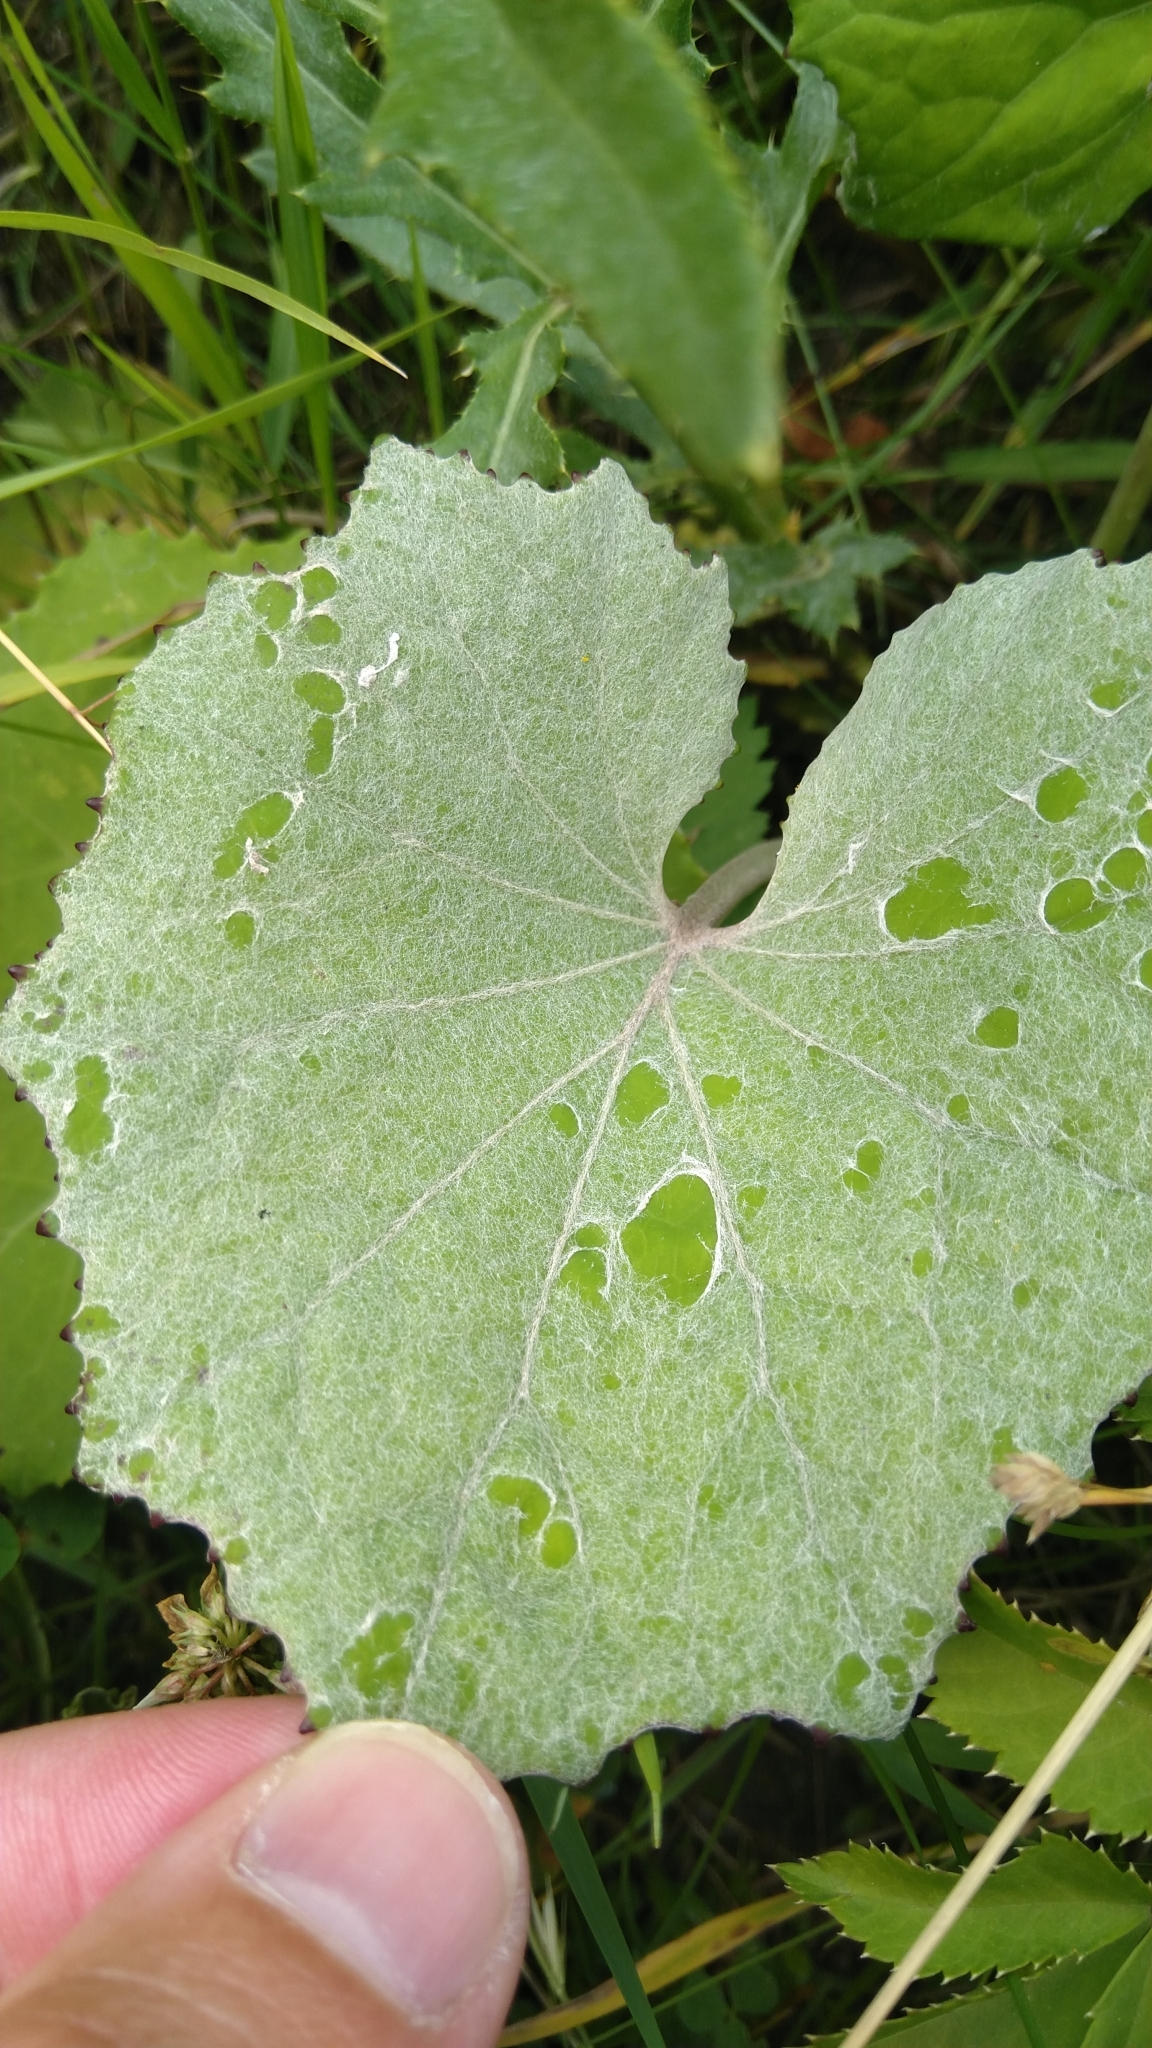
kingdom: Plantae
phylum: Tracheophyta
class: Magnoliopsida
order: Asterales
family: Asteraceae
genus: Tussilago
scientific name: Tussilago farfara
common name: Coltsfoot
